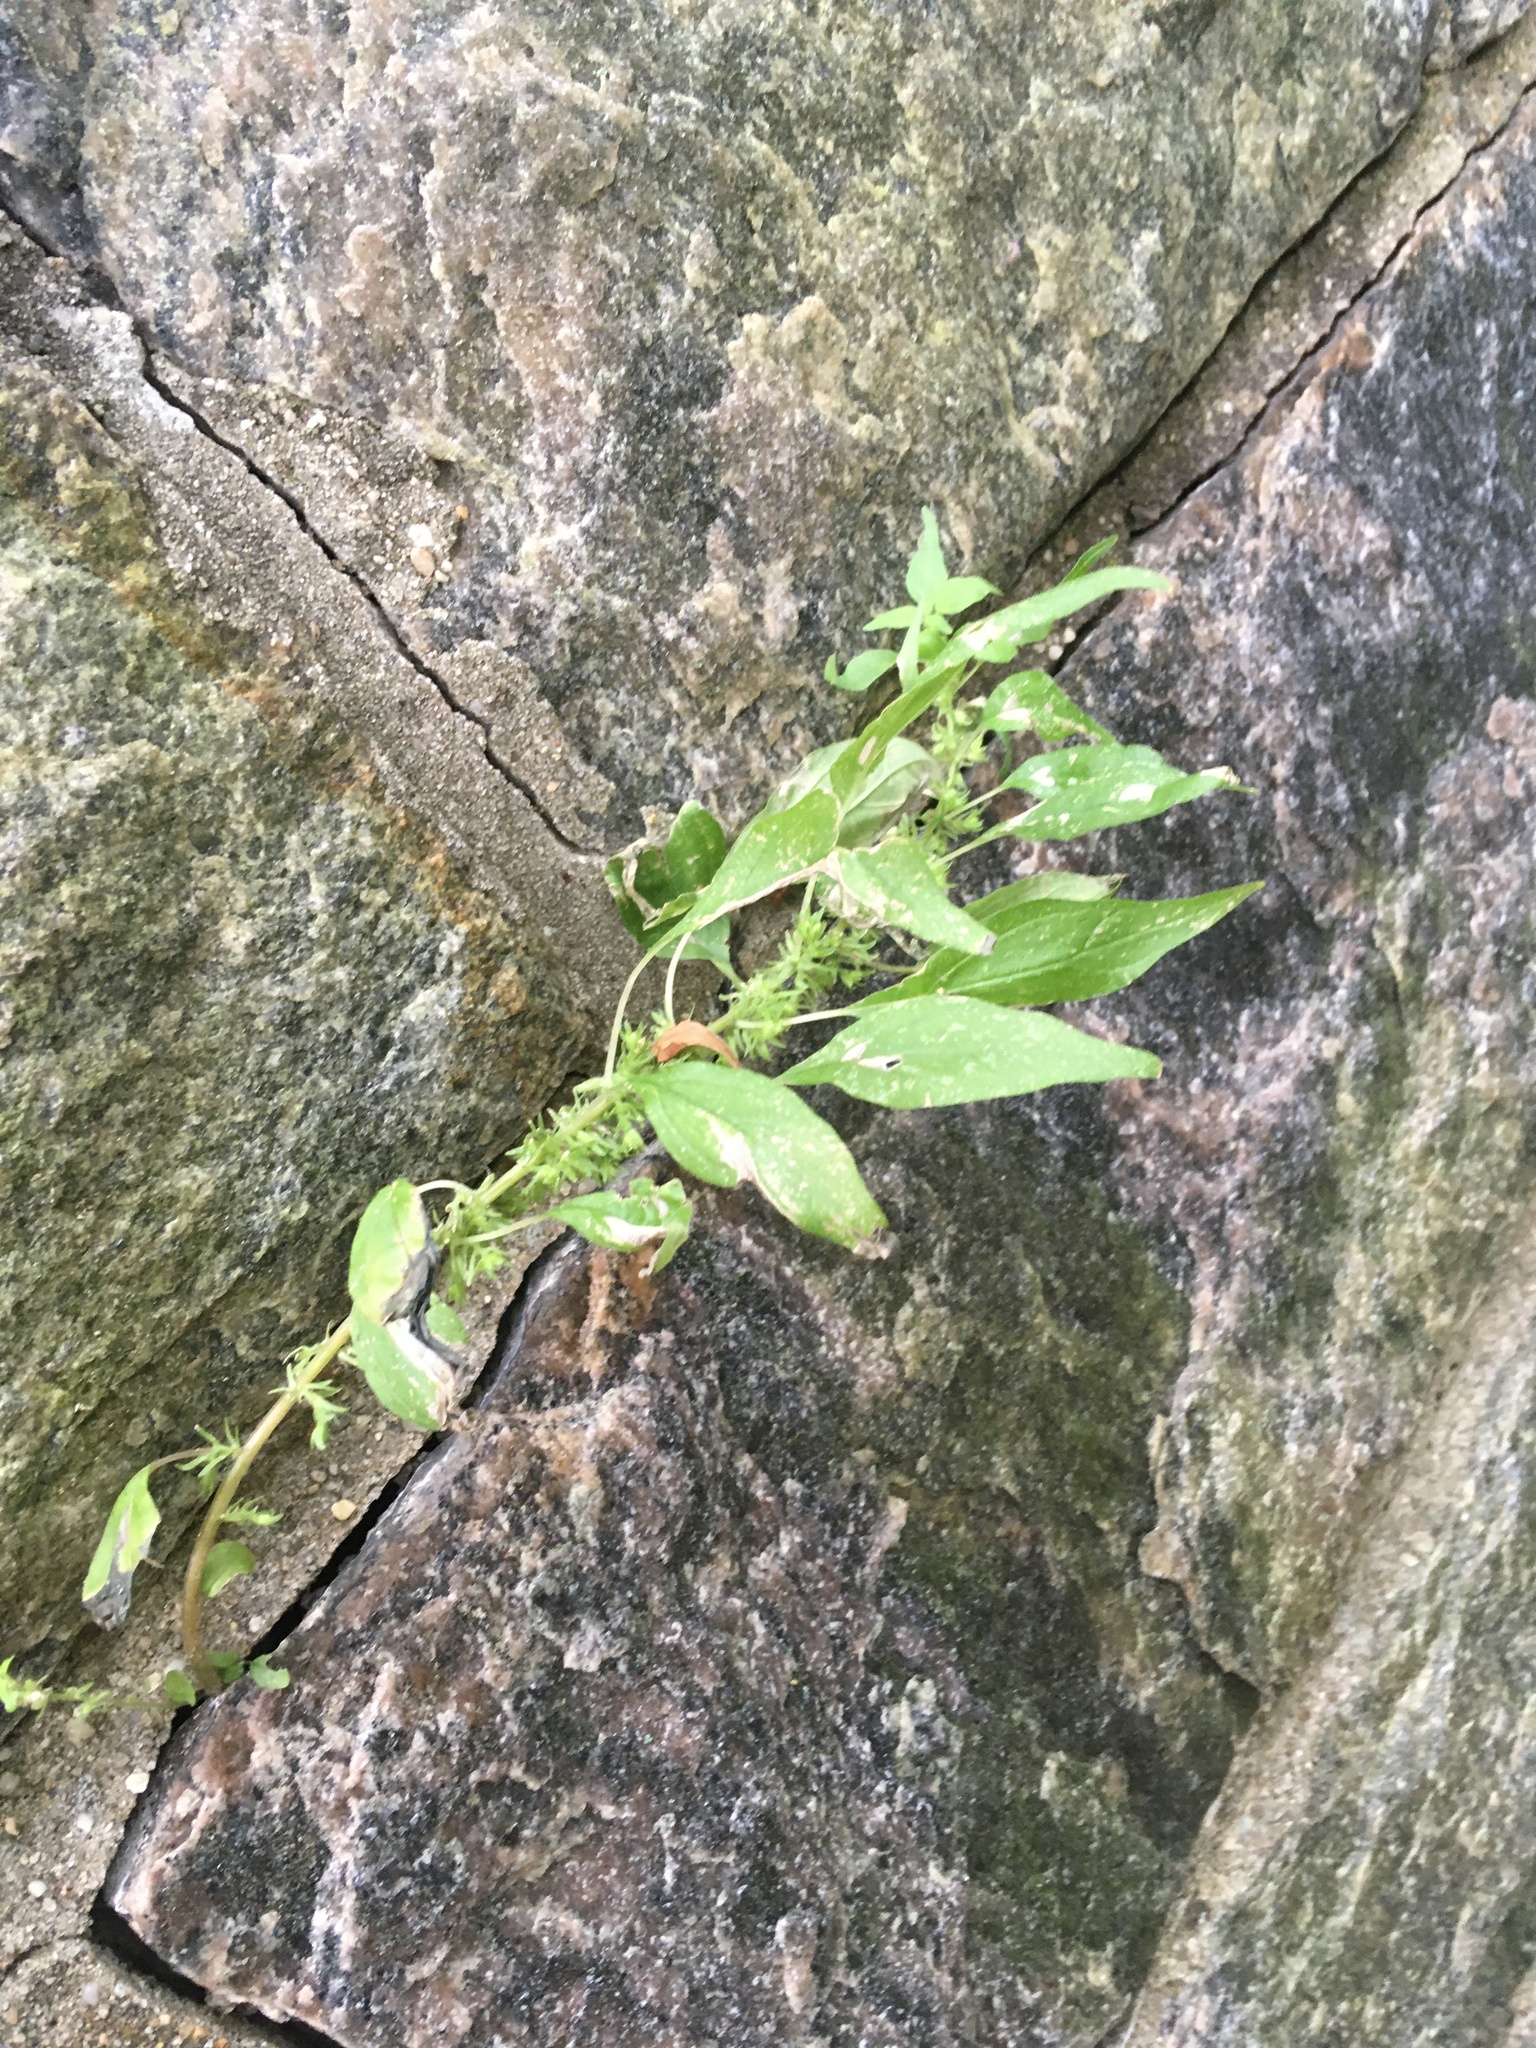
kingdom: Plantae
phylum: Tracheophyta
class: Magnoliopsida
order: Rosales
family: Urticaceae
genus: Parietaria
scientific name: Parietaria pensylvanica
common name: Pennsylvania pellitory
